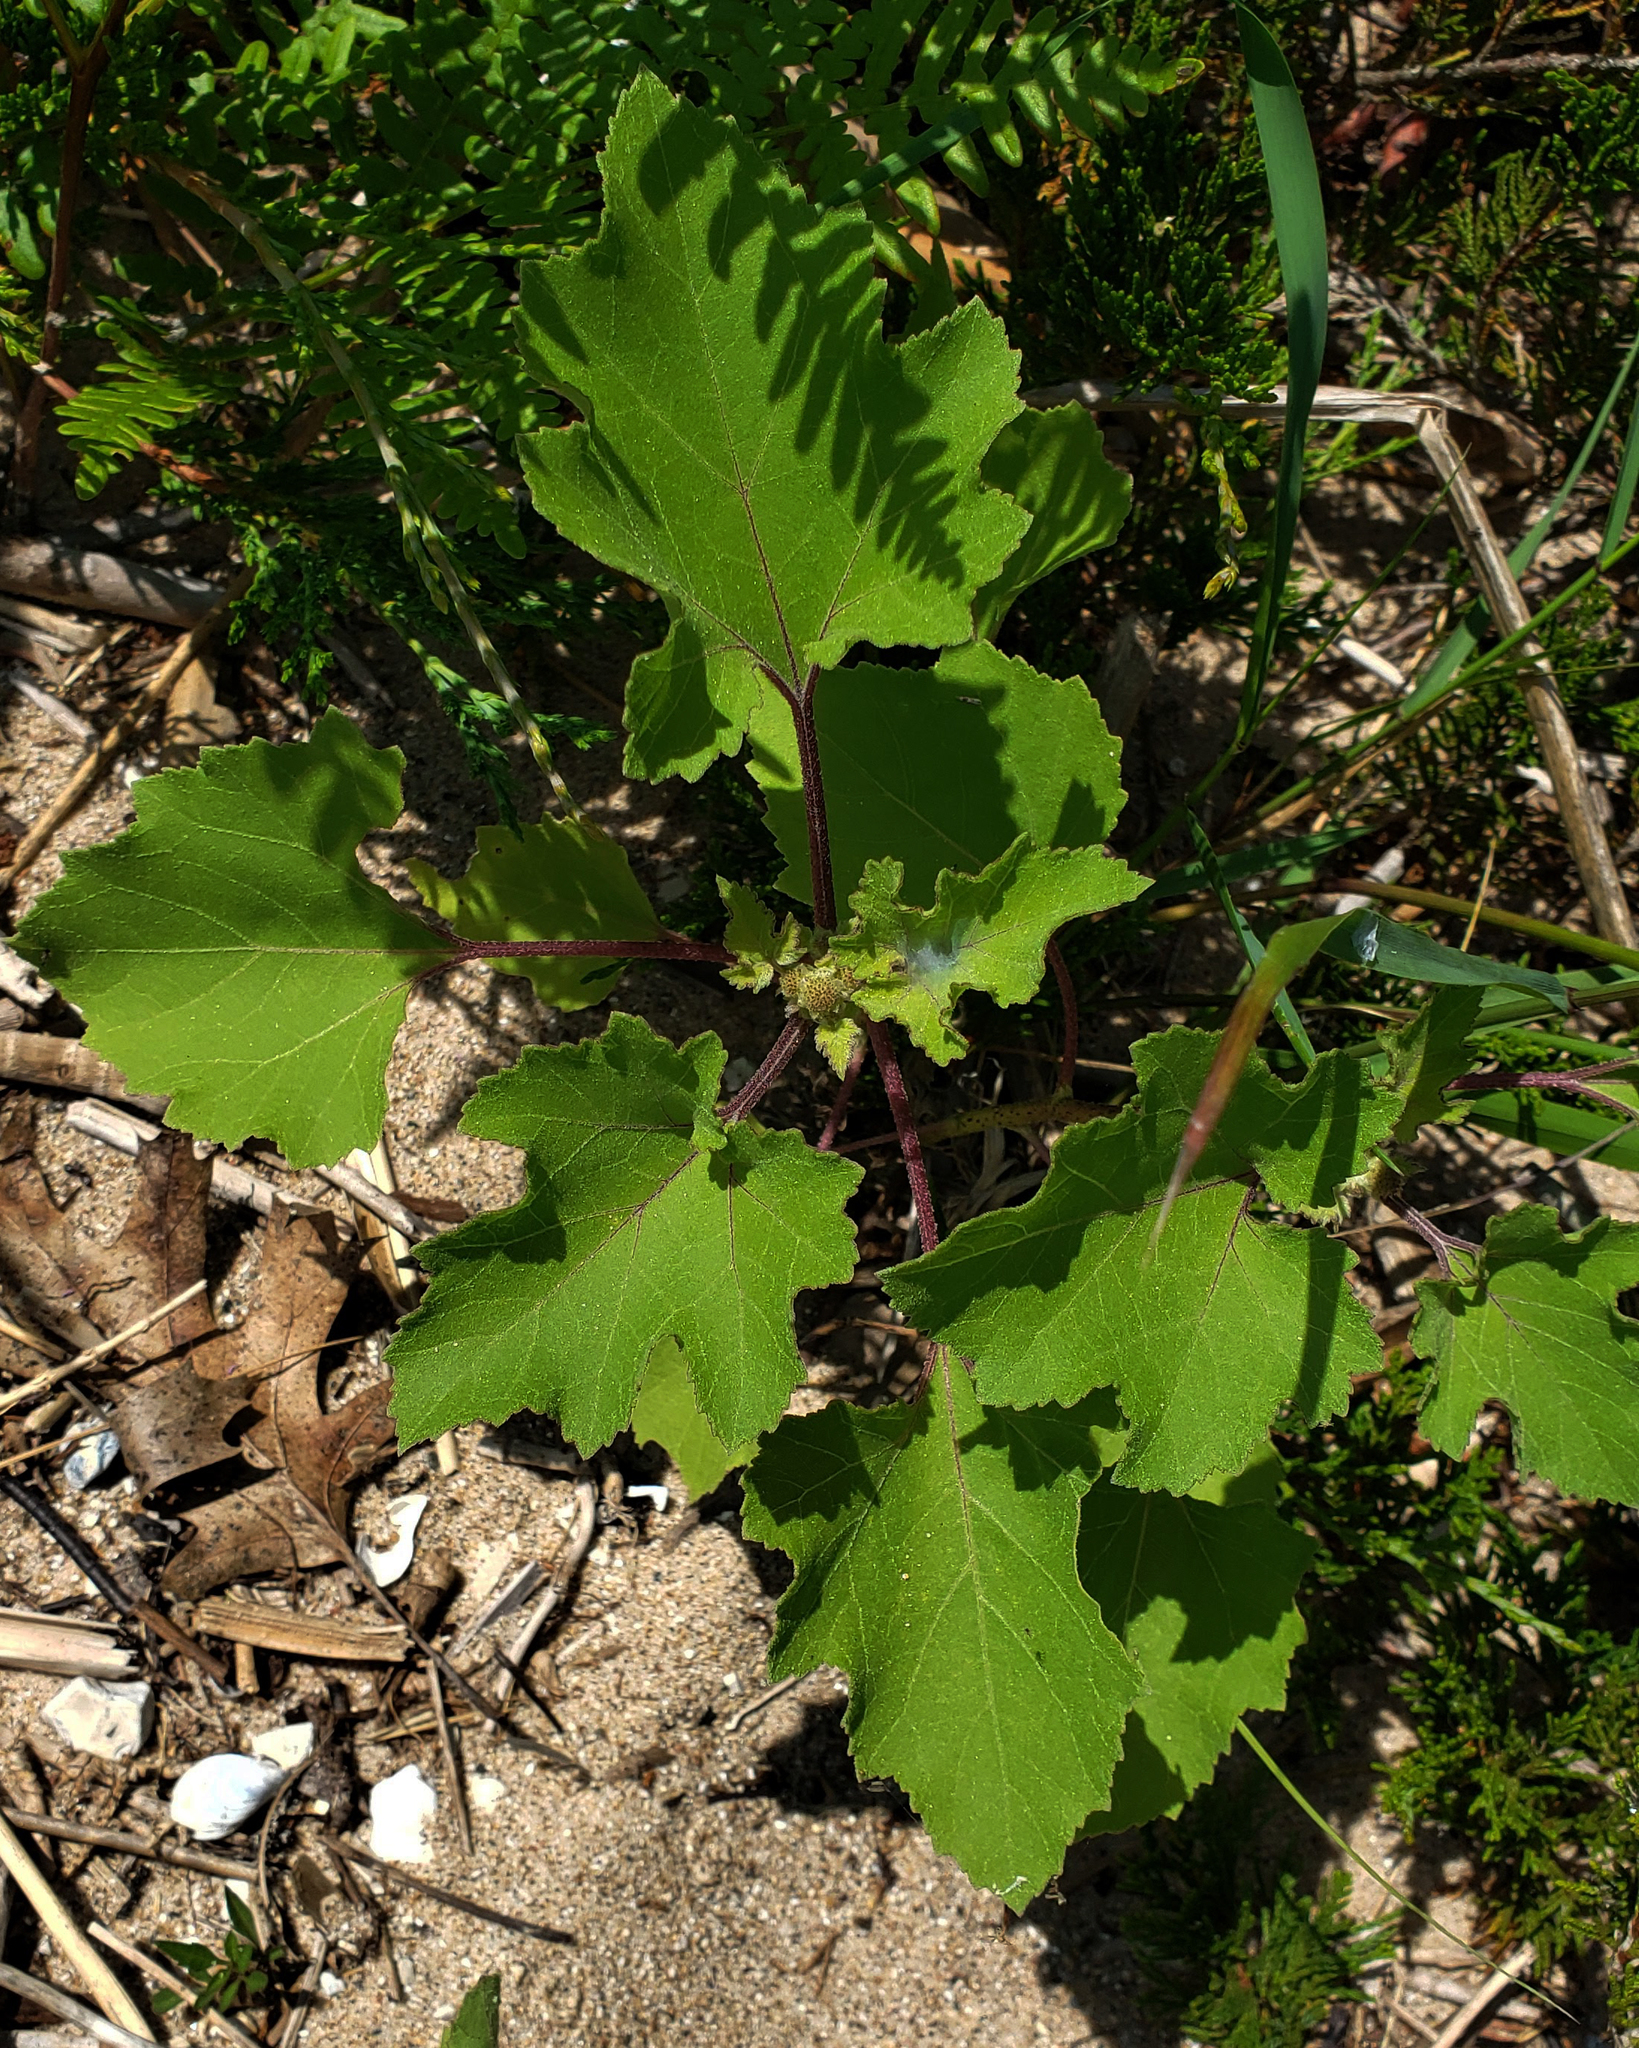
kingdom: Plantae
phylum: Tracheophyta
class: Magnoliopsida
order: Asterales
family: Asteraceae
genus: Xanthium
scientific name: Xanthium strumarium
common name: Rough cocklebur
